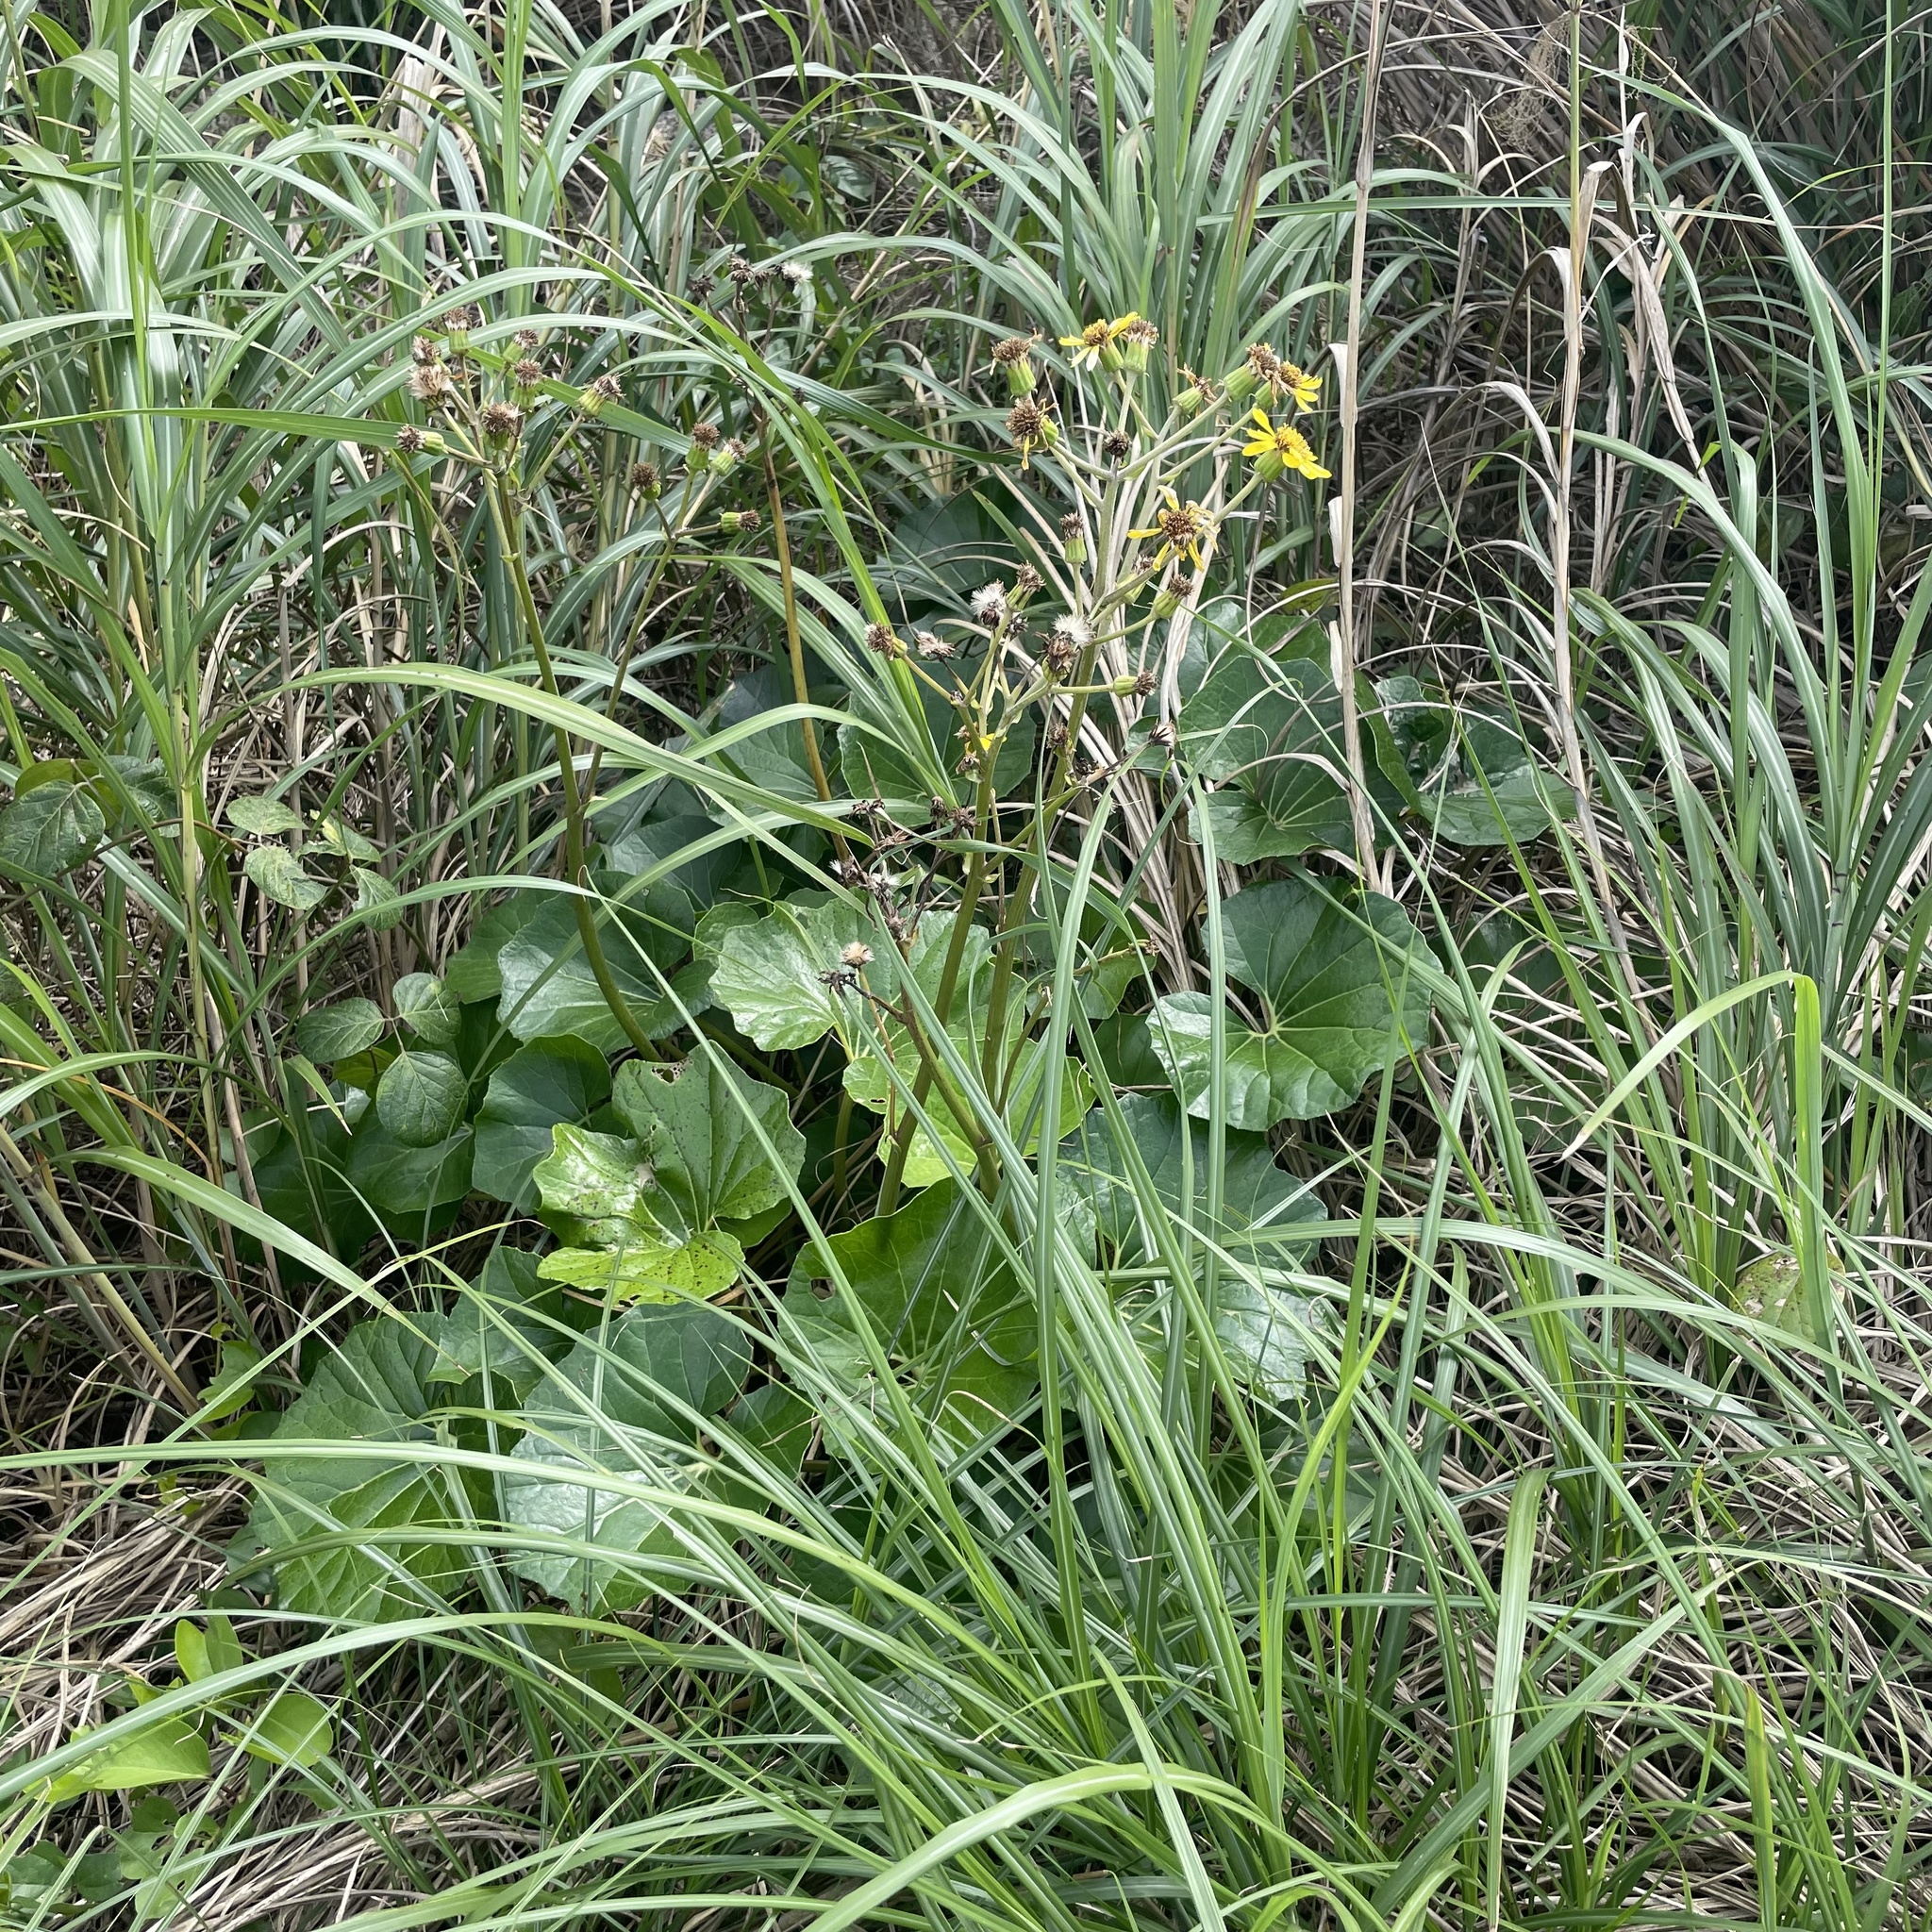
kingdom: Plantae
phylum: Tracheophyta
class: Magnoliopsida
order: Asterales
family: Asteraceae
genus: Farfugium
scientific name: Farfugium japonicum
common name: Leopardplant
